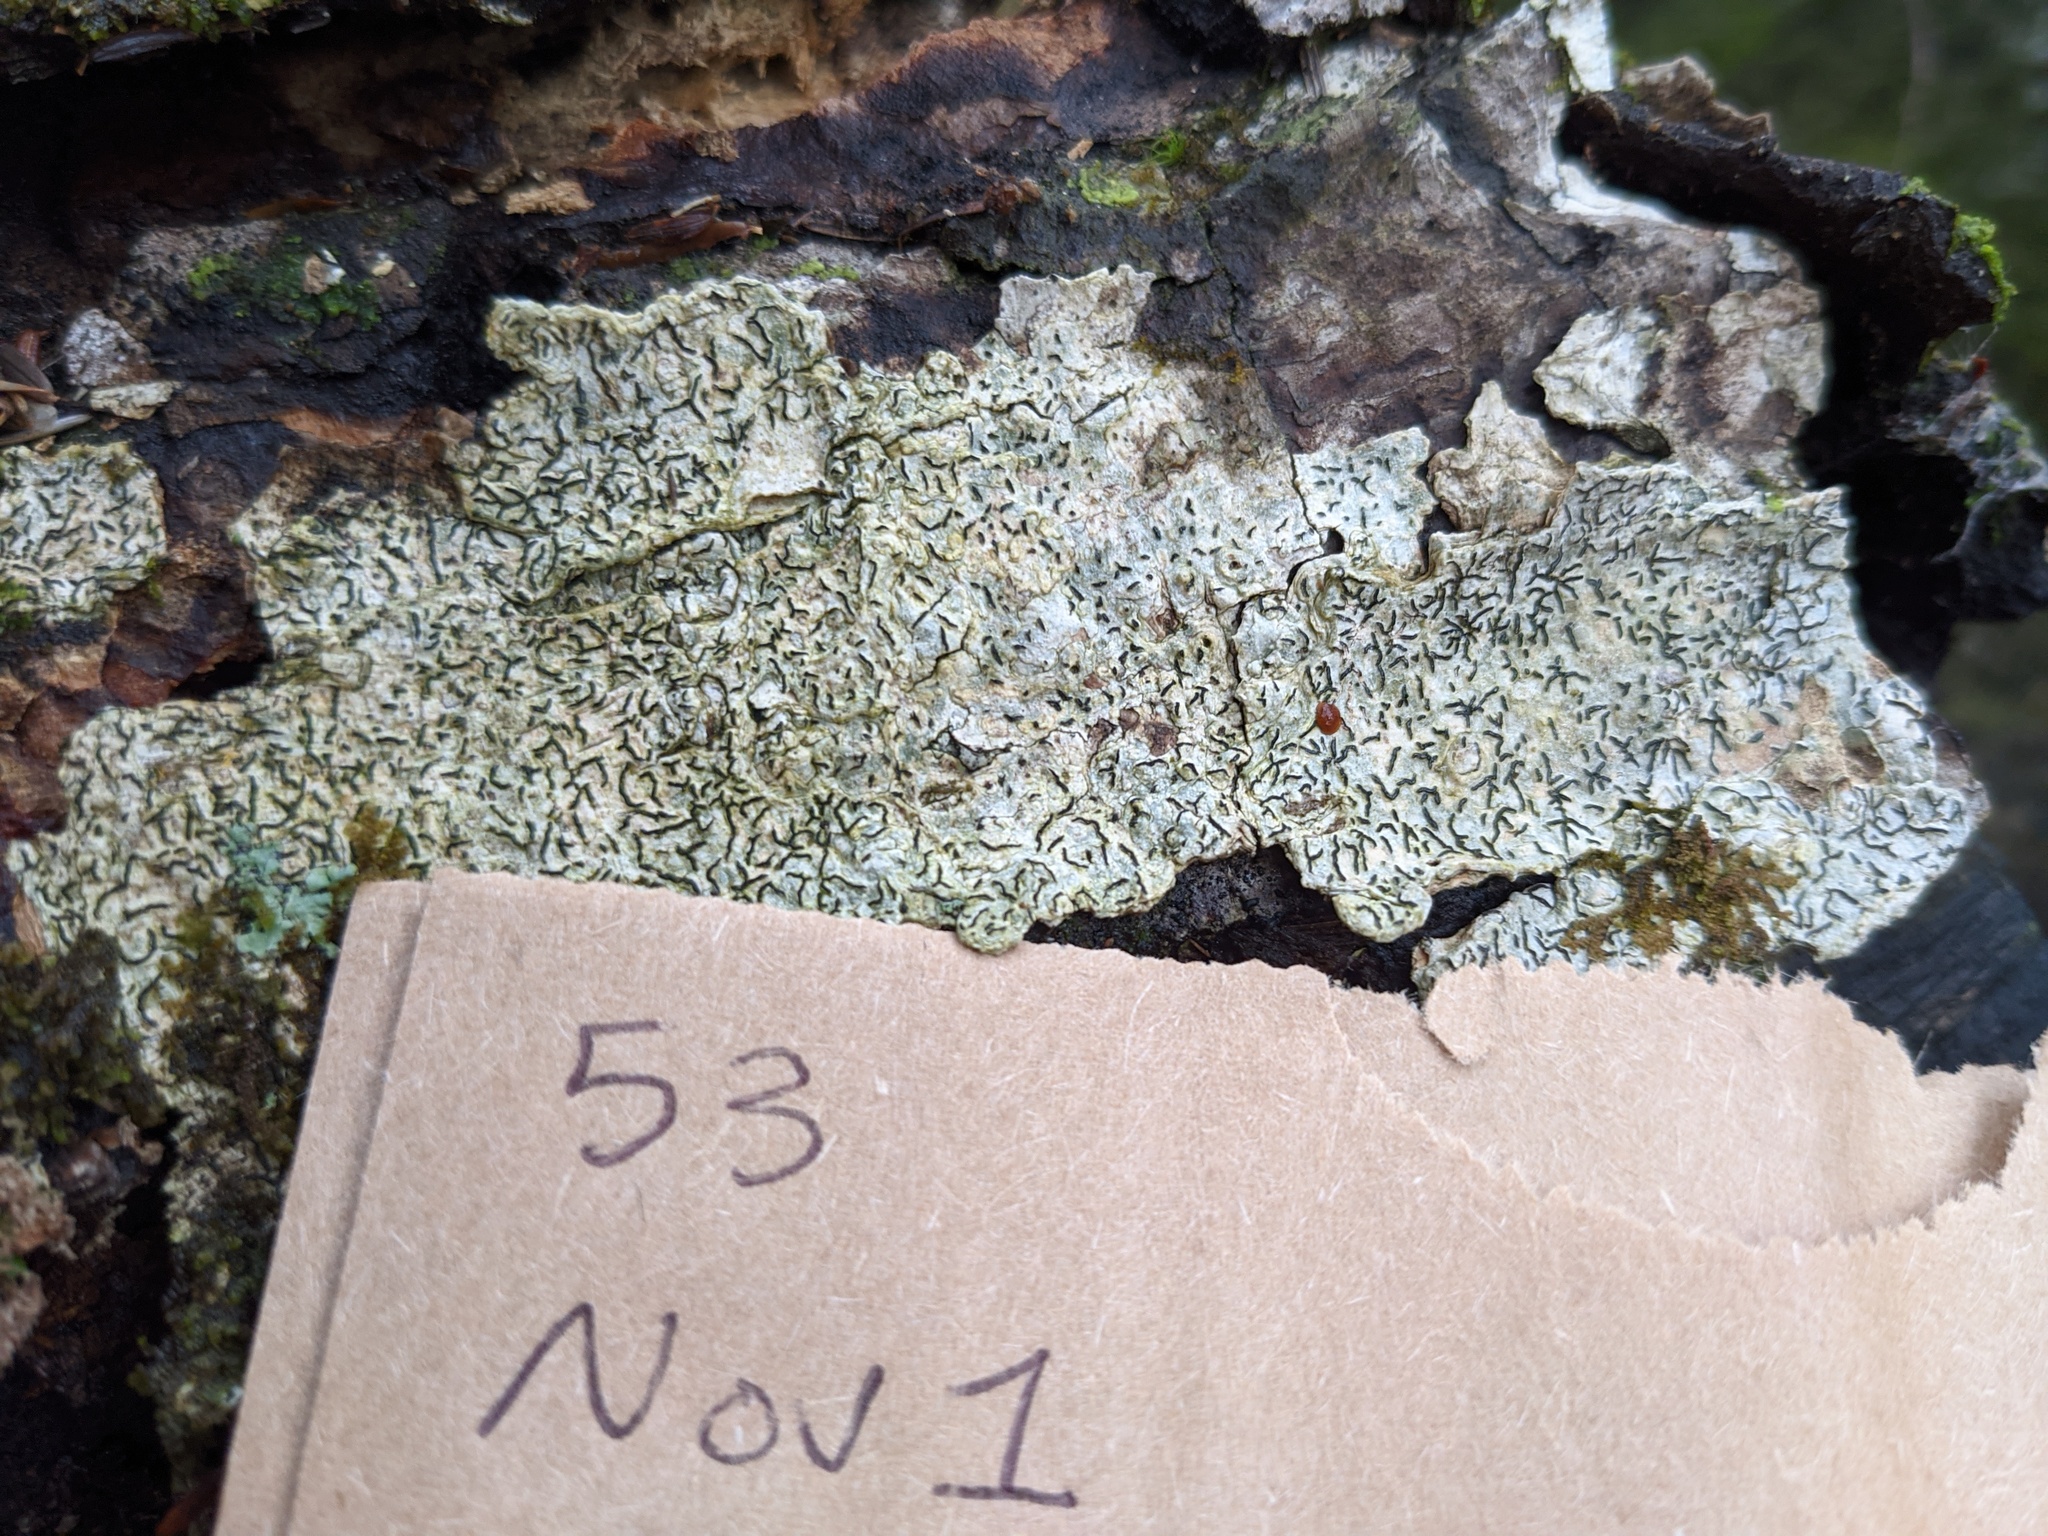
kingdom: Fungi
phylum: Ascomycota
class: Lecanoromycetes
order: Ostropales
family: Graphidaceae
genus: Graphis
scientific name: Graphis scripta
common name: Script lichen
